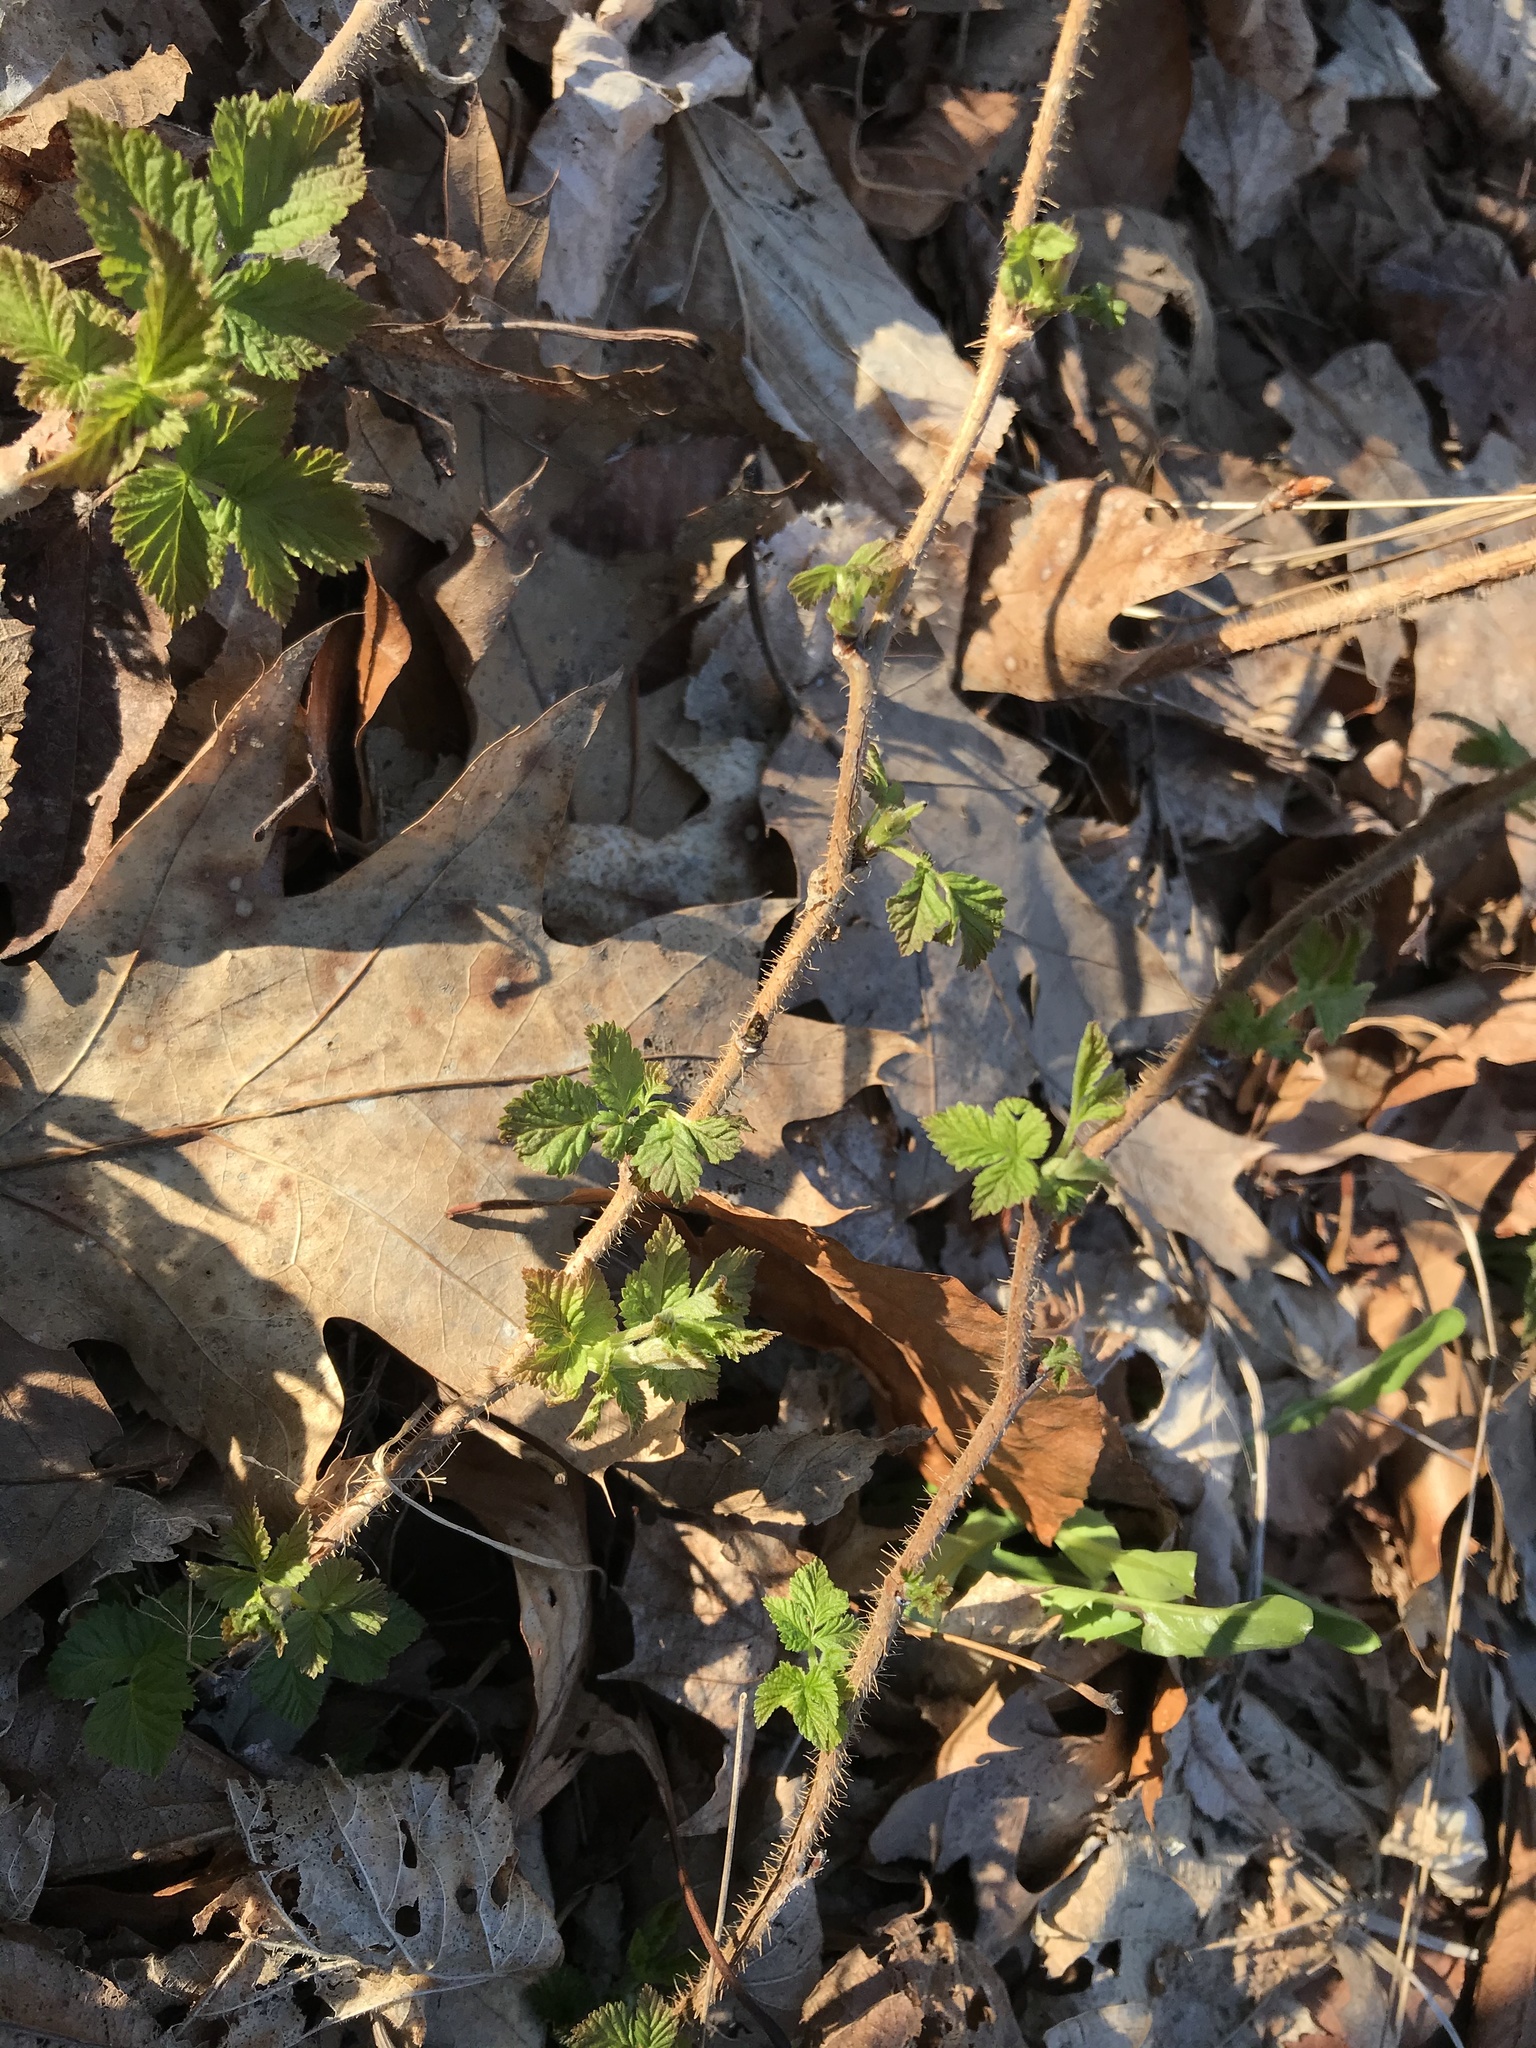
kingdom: Plantae
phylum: Tracheophyta
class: Magnoliopsida
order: Rosales
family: Rosaceae
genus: Rubus
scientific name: Rubus idaeus
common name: Raspberry
